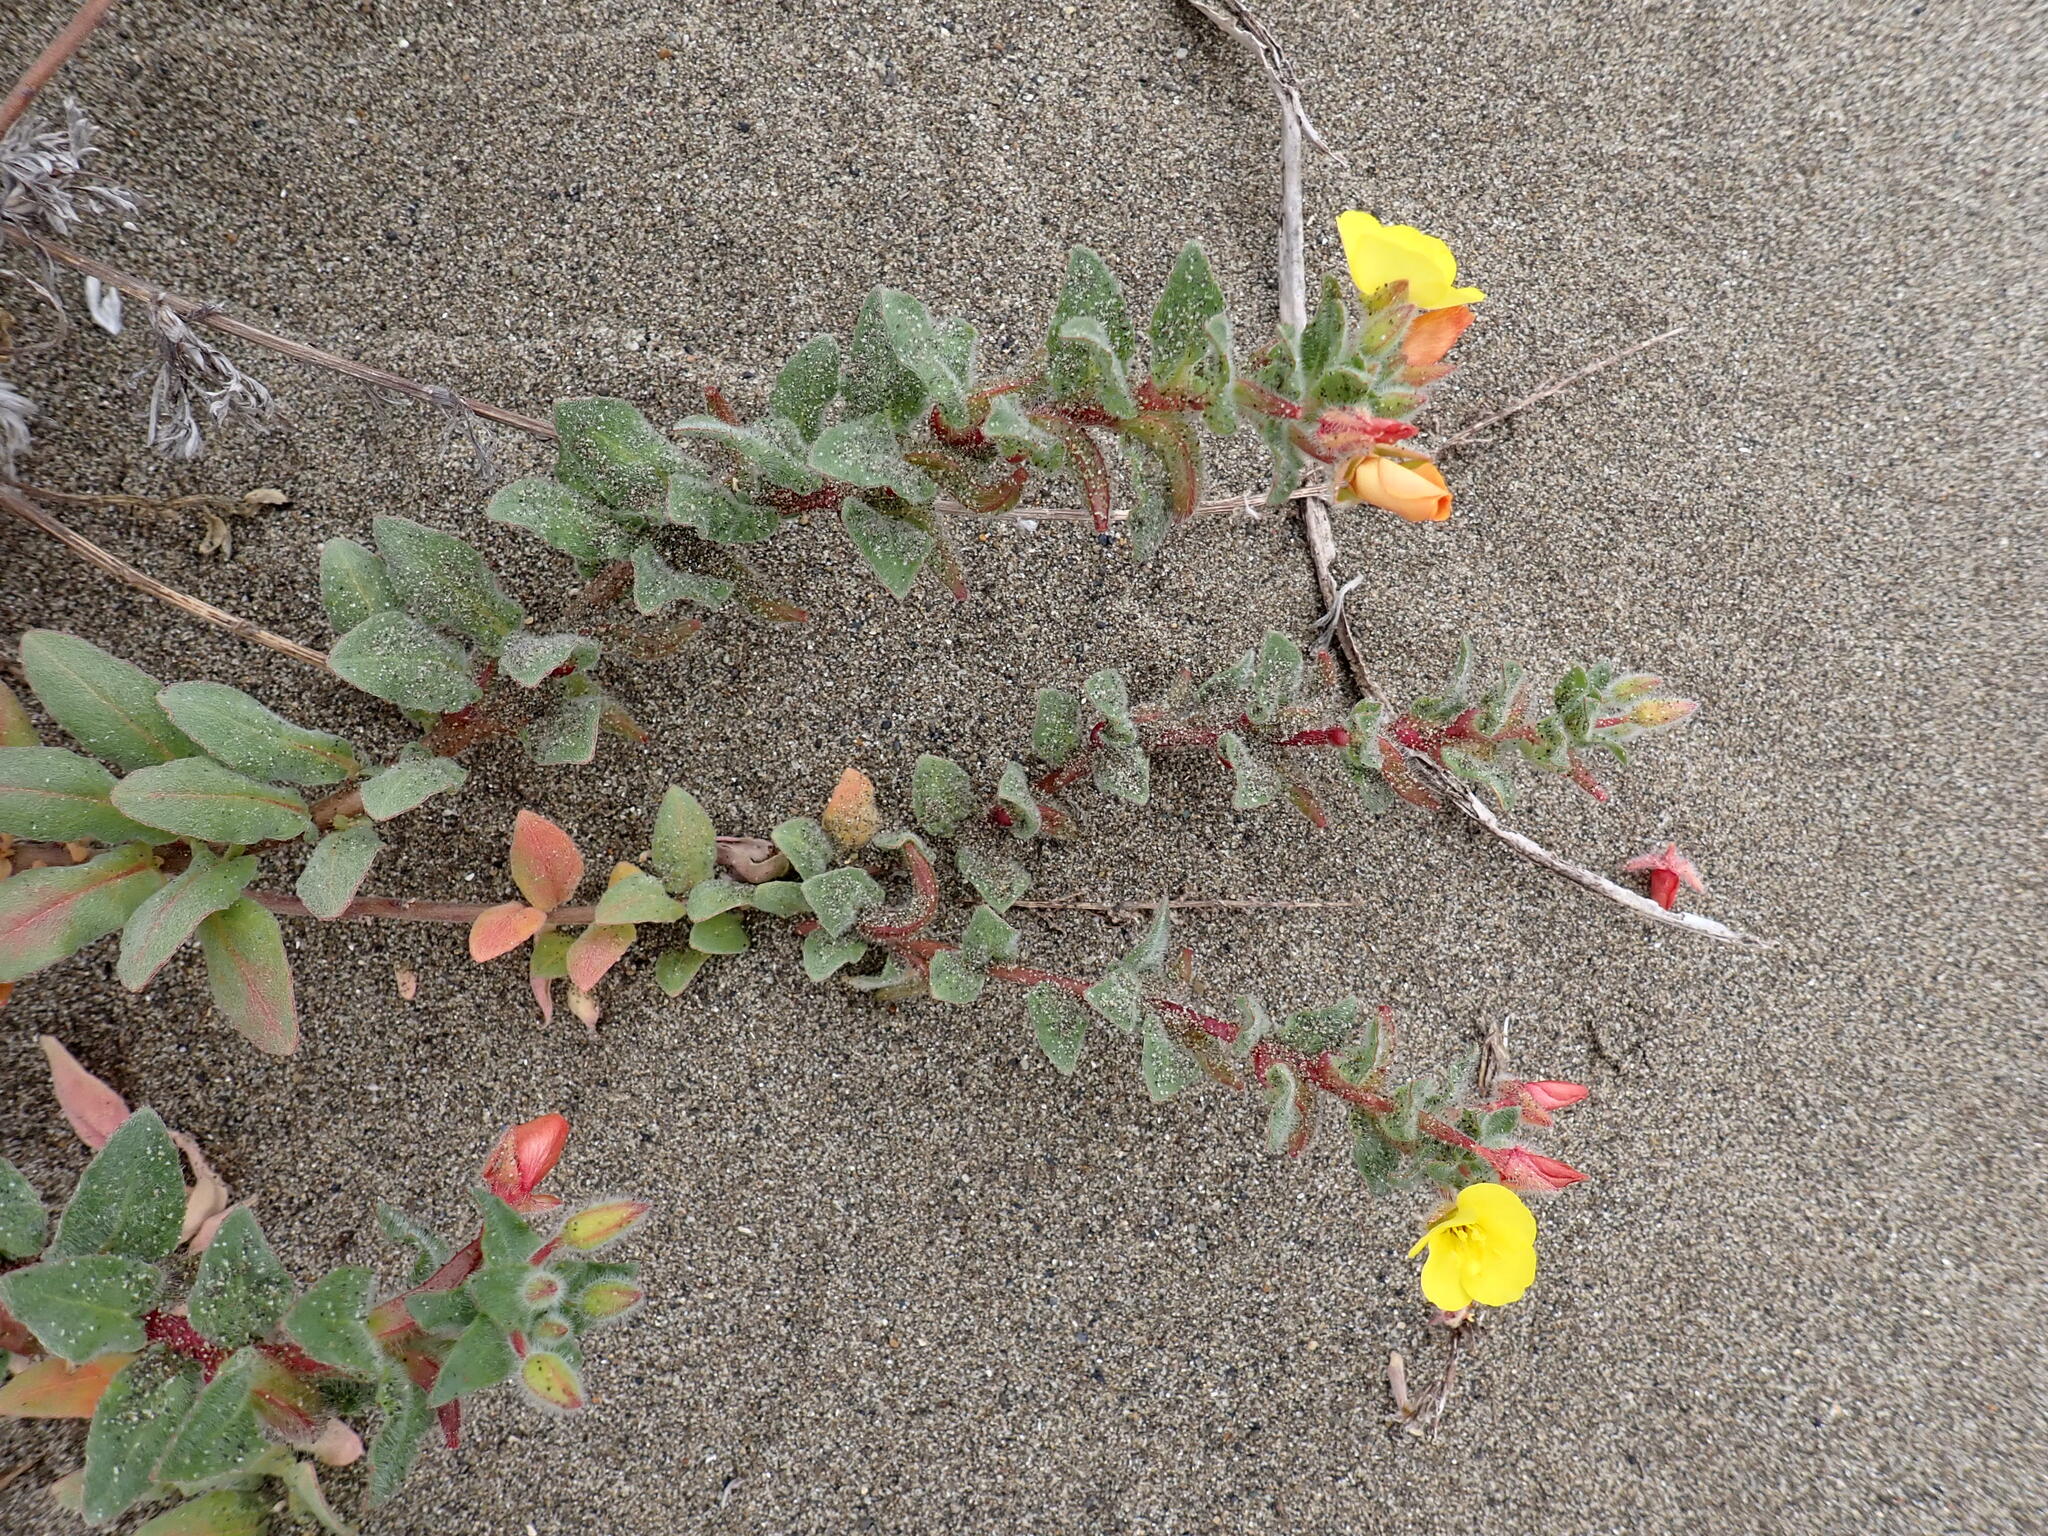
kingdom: Plantae
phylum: Tracheophyta
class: Magnoliopsida
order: Myrtales
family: Onagraceae
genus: Camissoniopsis
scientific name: Camissoniopsis cheiranthifolia
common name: Beach suncup
